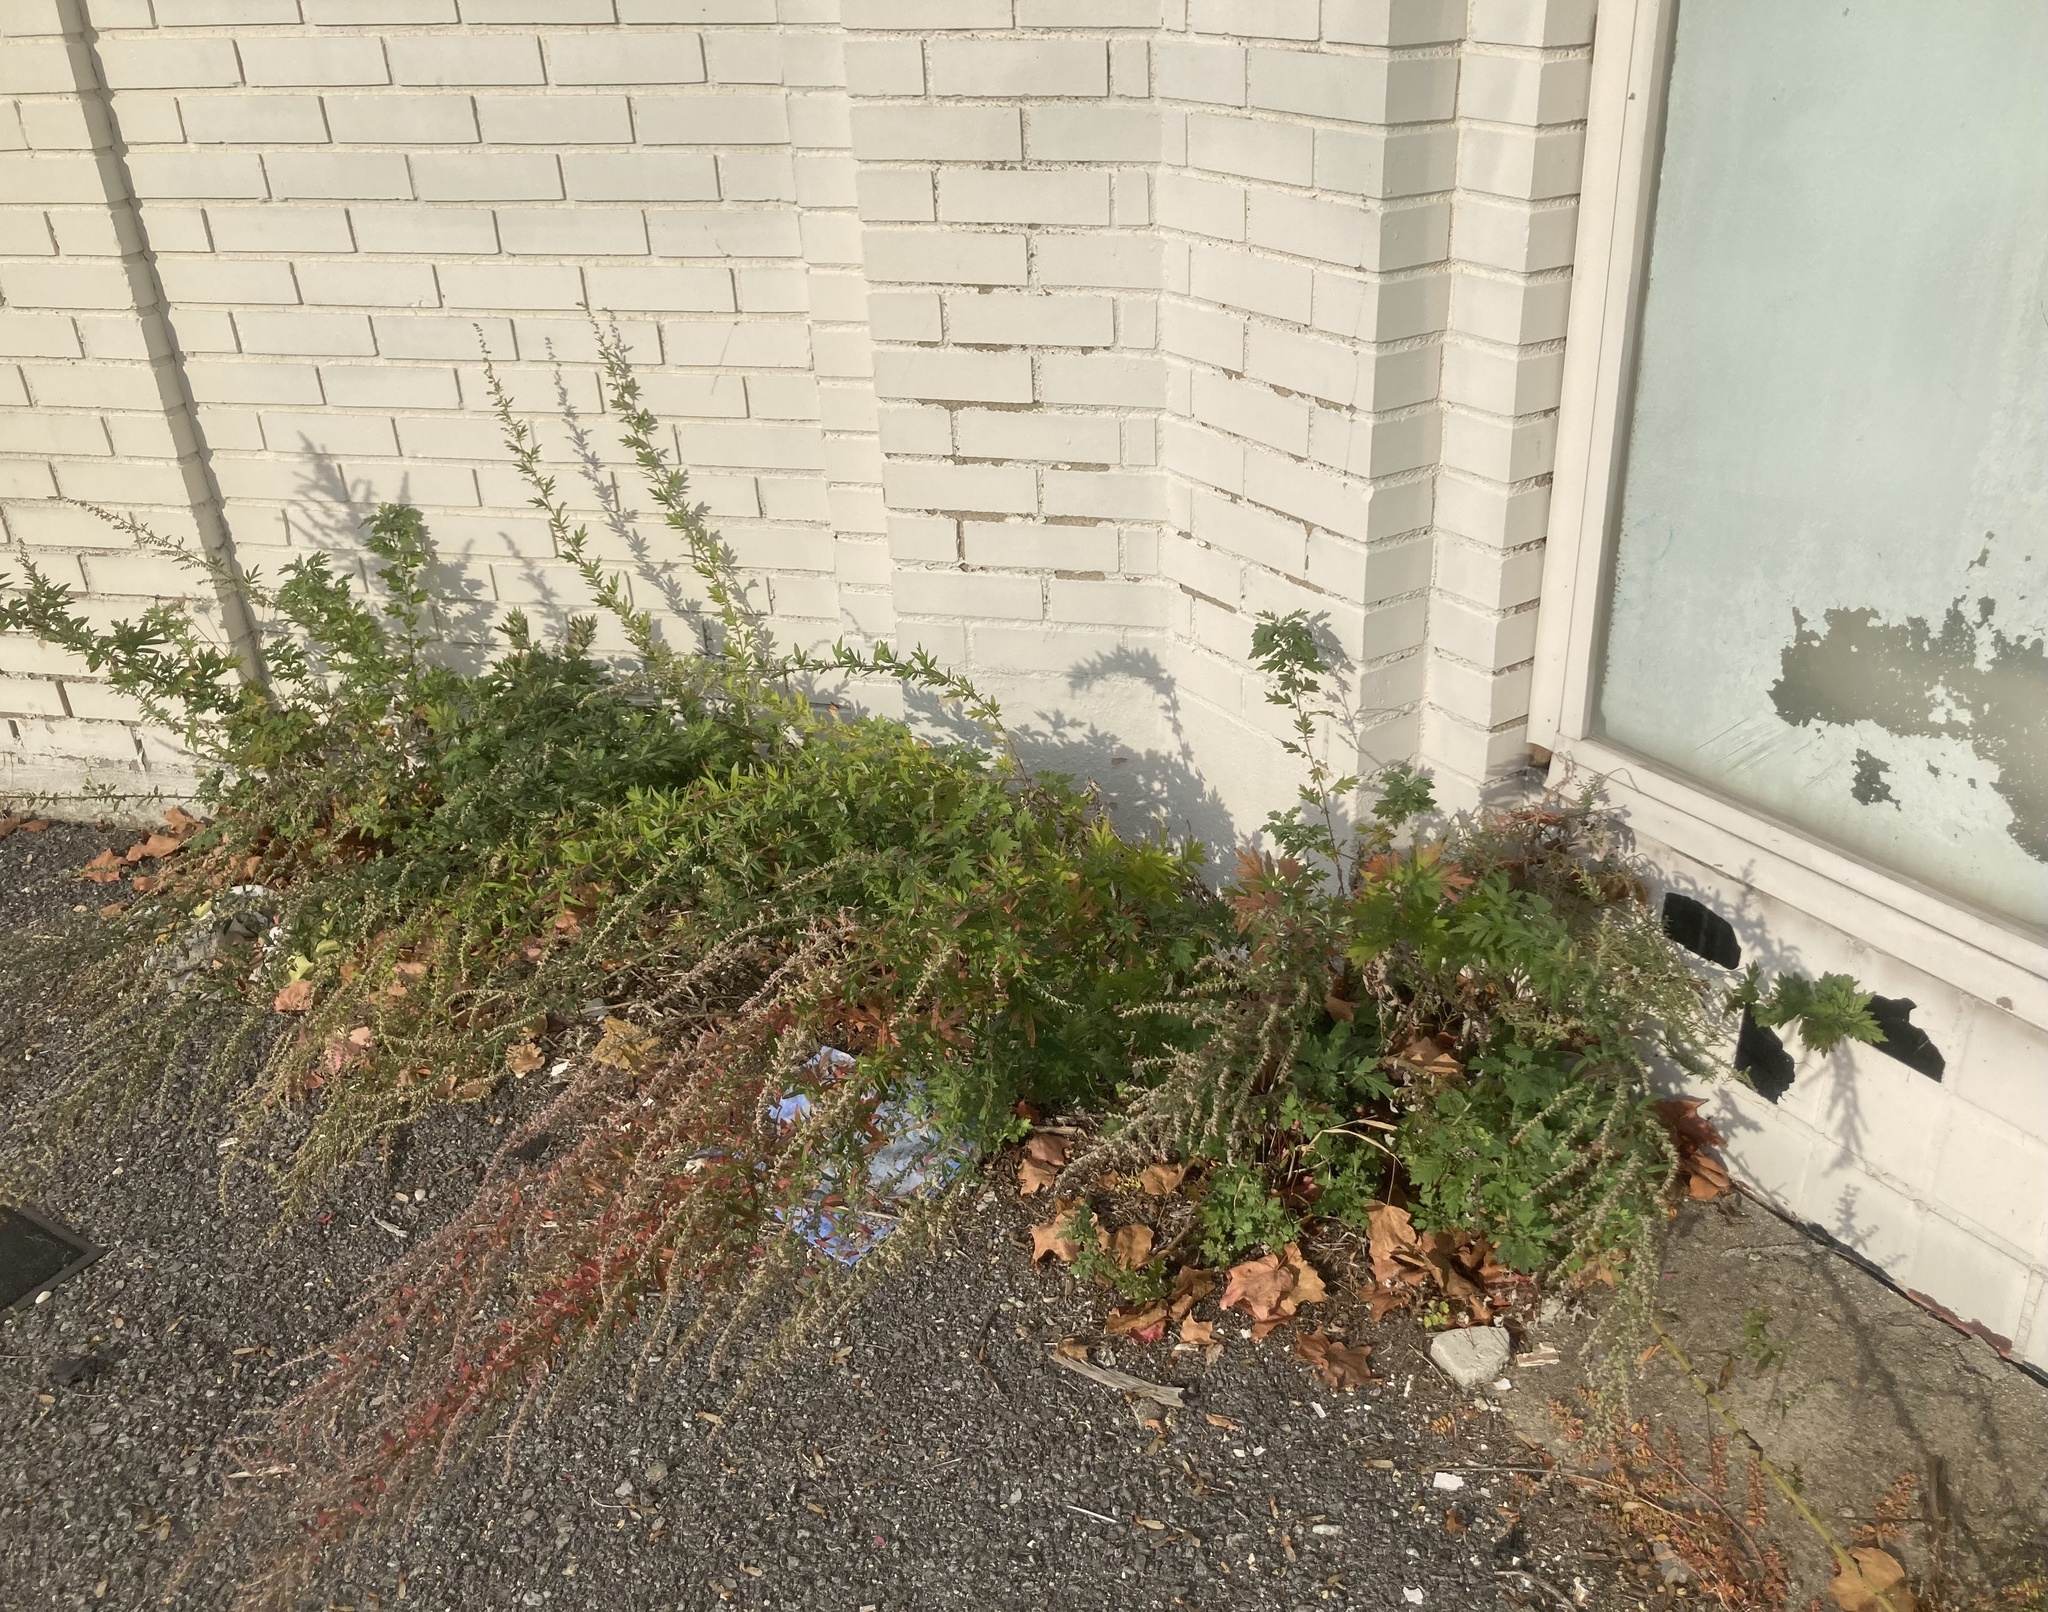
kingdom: Plantae
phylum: Tracheophyta
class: Magnoliopsida
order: Asterales
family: Asteraceae
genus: Artemisia
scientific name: Artemisia vulgaris
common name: Mugwort
